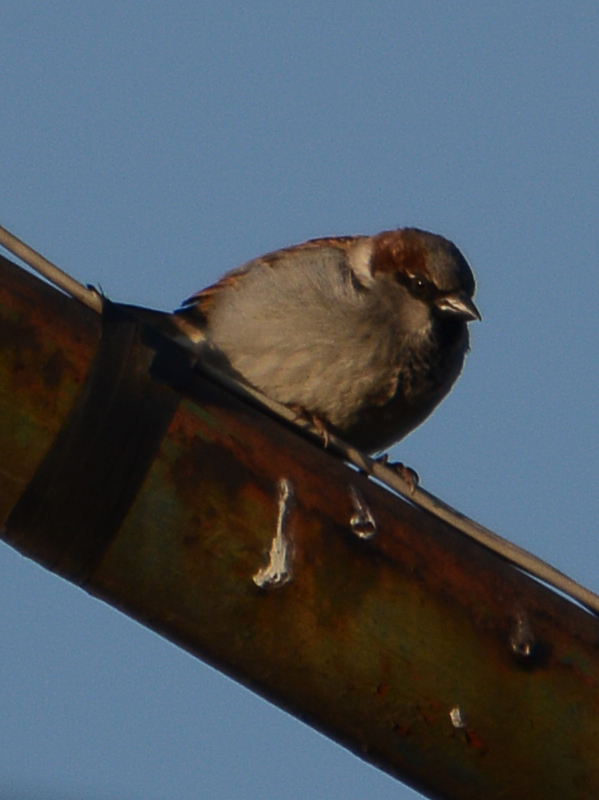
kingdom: Animalia
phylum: Chordata
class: Aves
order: Passeriformes
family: Passeridae
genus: Passer
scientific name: Passer domesticus
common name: House sparrow
